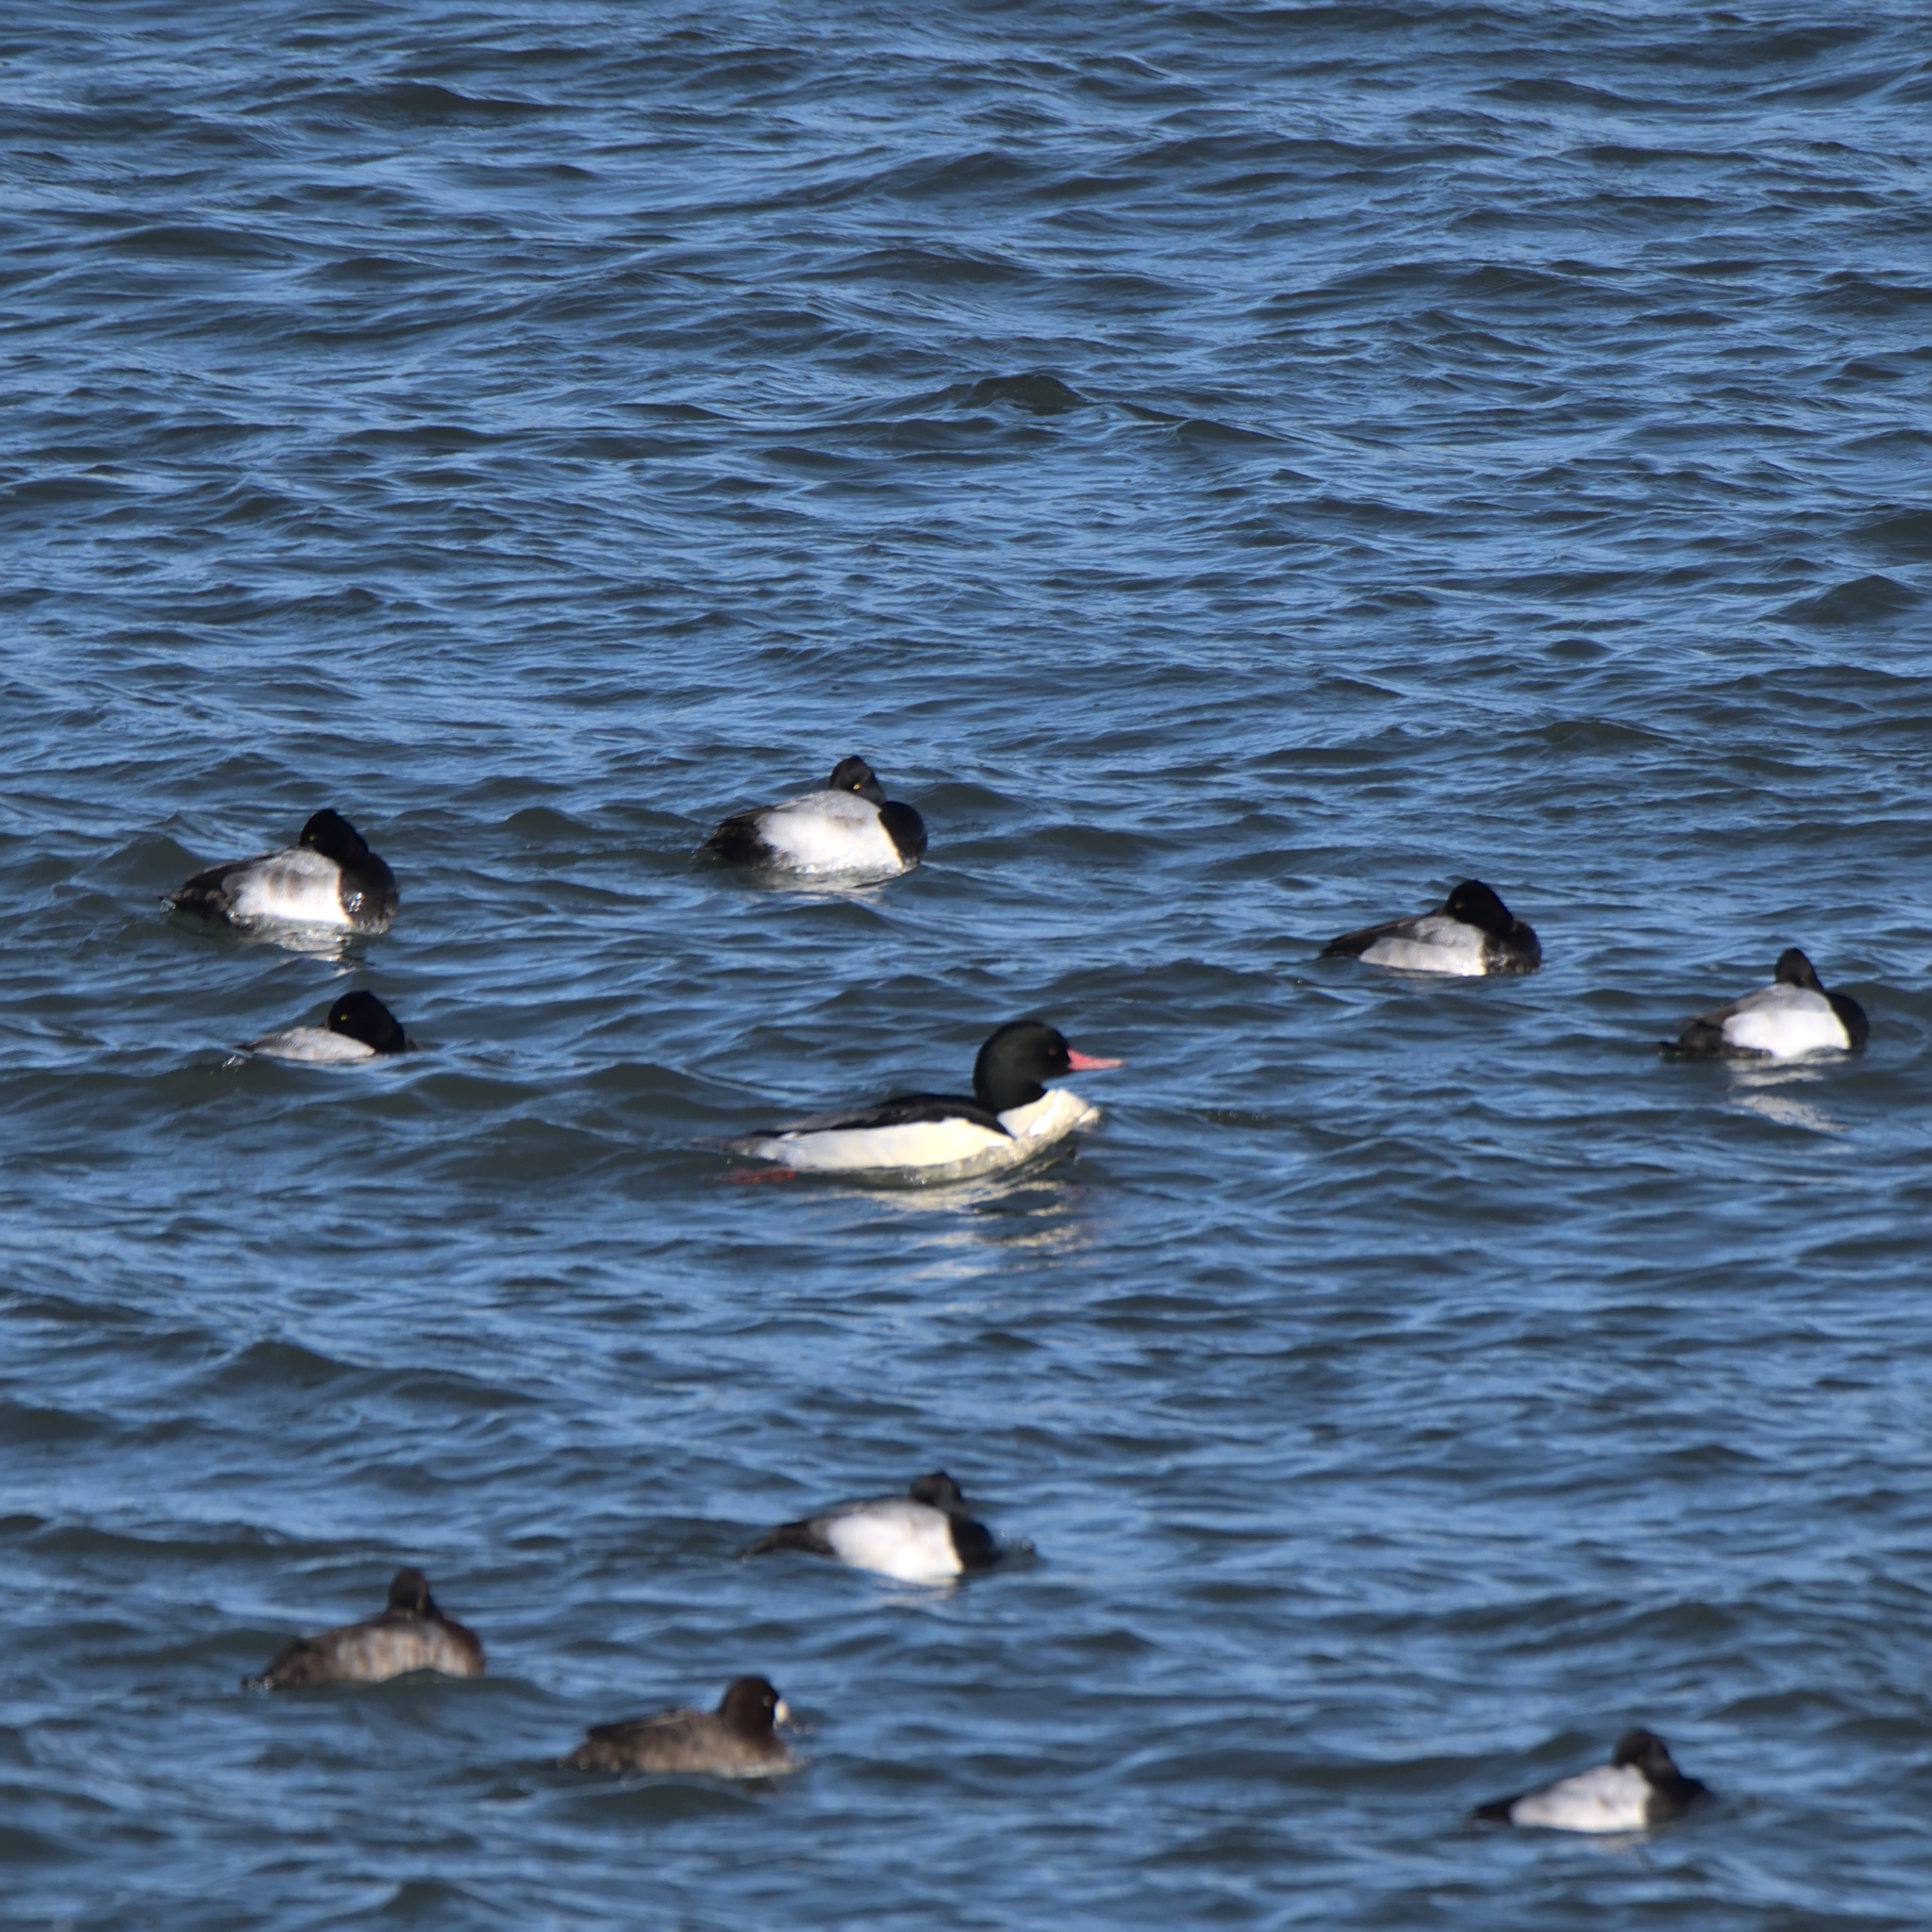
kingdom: Animalia
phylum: Chordata
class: Aves
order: Anseriformes
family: Anatidae
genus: Mergus
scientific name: Mergus merganser
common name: Common merganser
